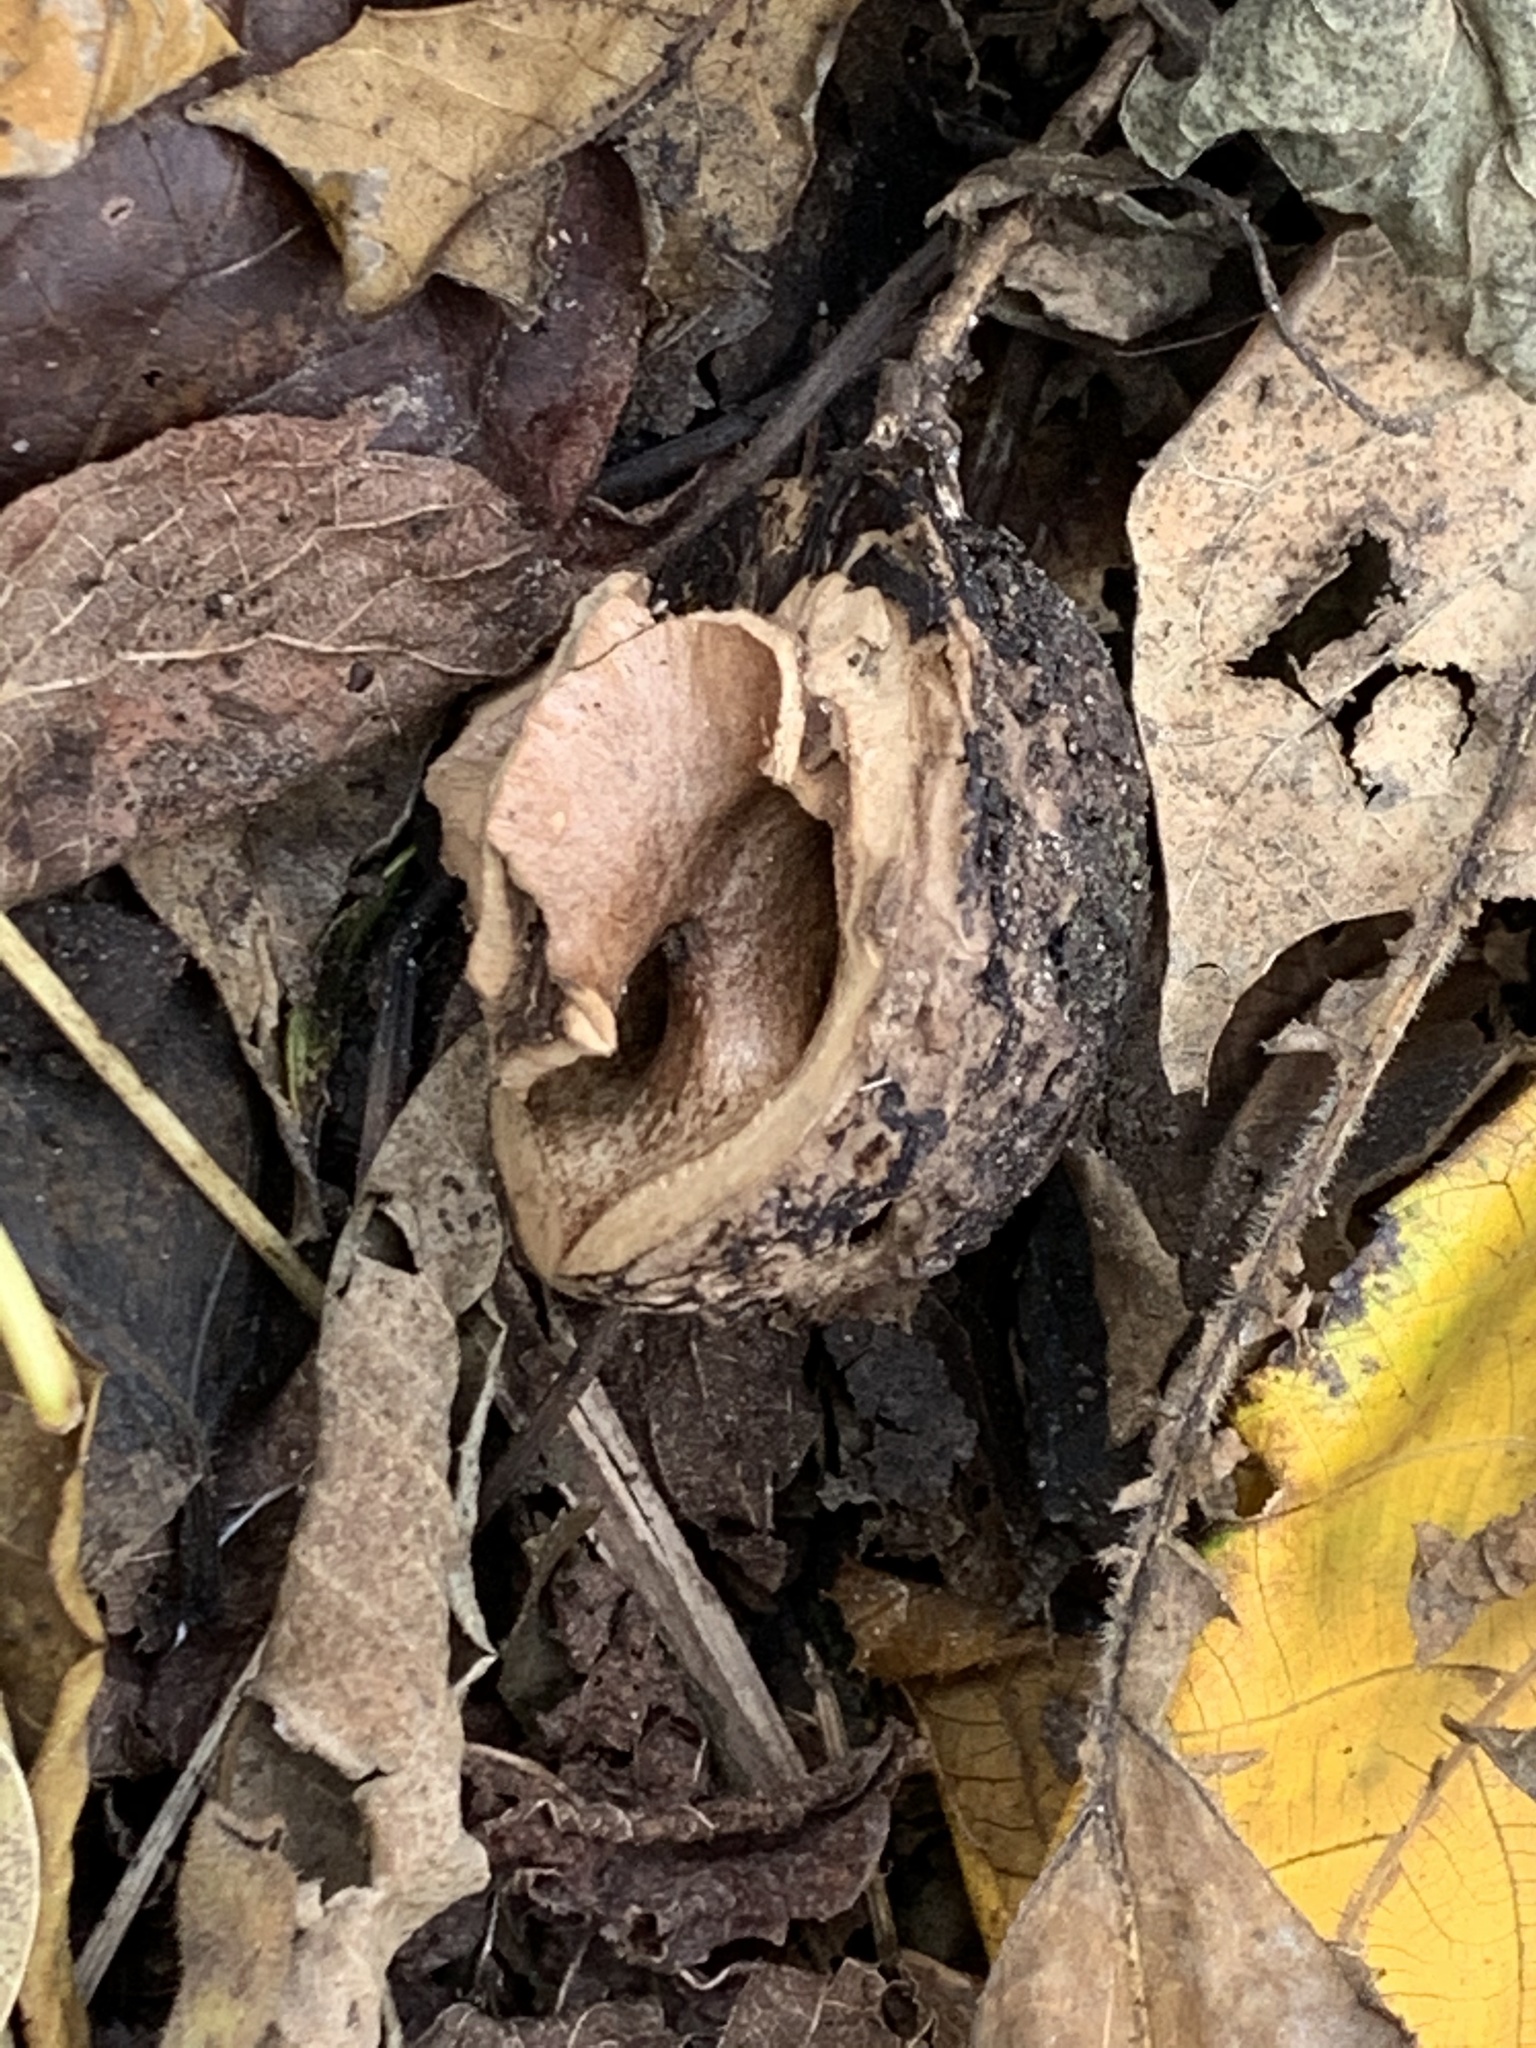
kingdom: Plantae
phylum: Tracheophyta
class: Magnoliopsida
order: Fagales
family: Juglandaceae
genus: Juglans
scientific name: Juglans nigra
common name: Black walnut
